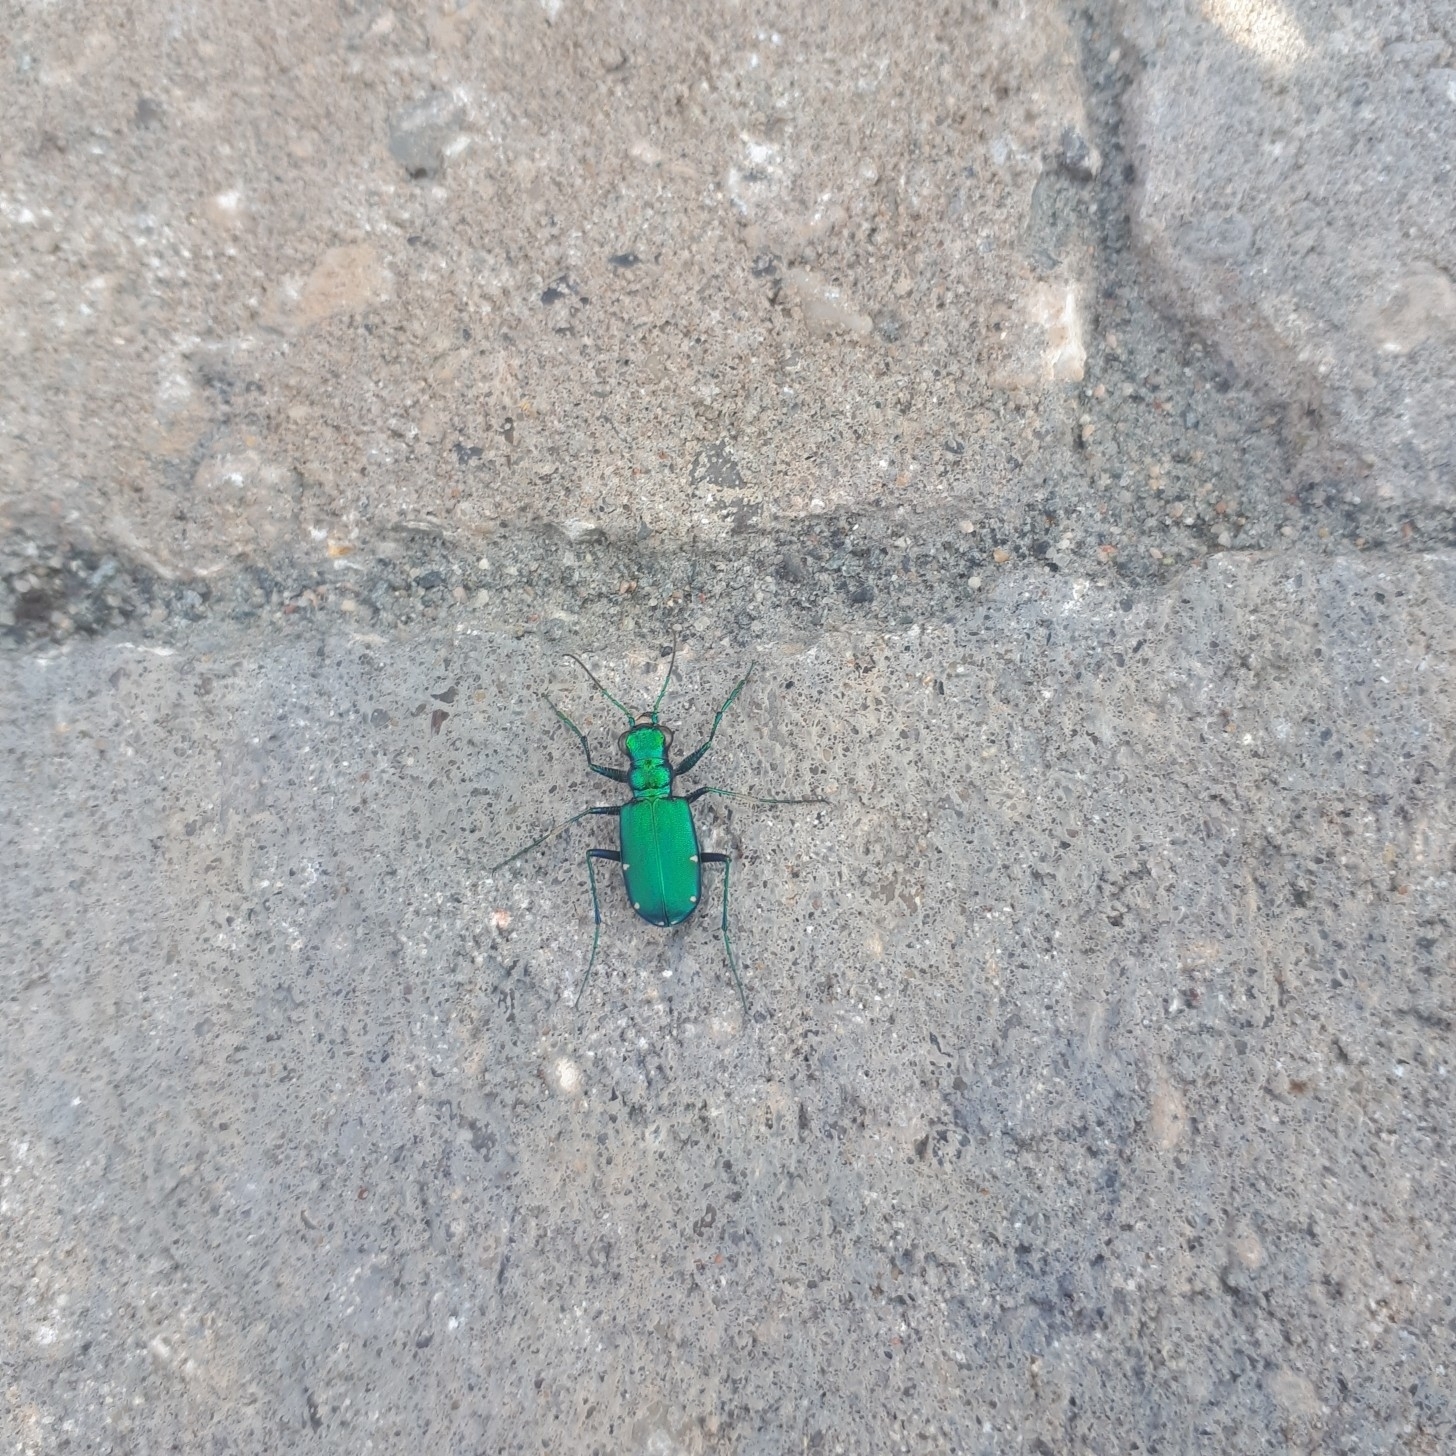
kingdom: Animalia
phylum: Arthropoda
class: Insecta
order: Coleoptera
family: Carabidae
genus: Cicindela
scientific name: Cicindela sexguttata
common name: Six-spotted tiger beetle
